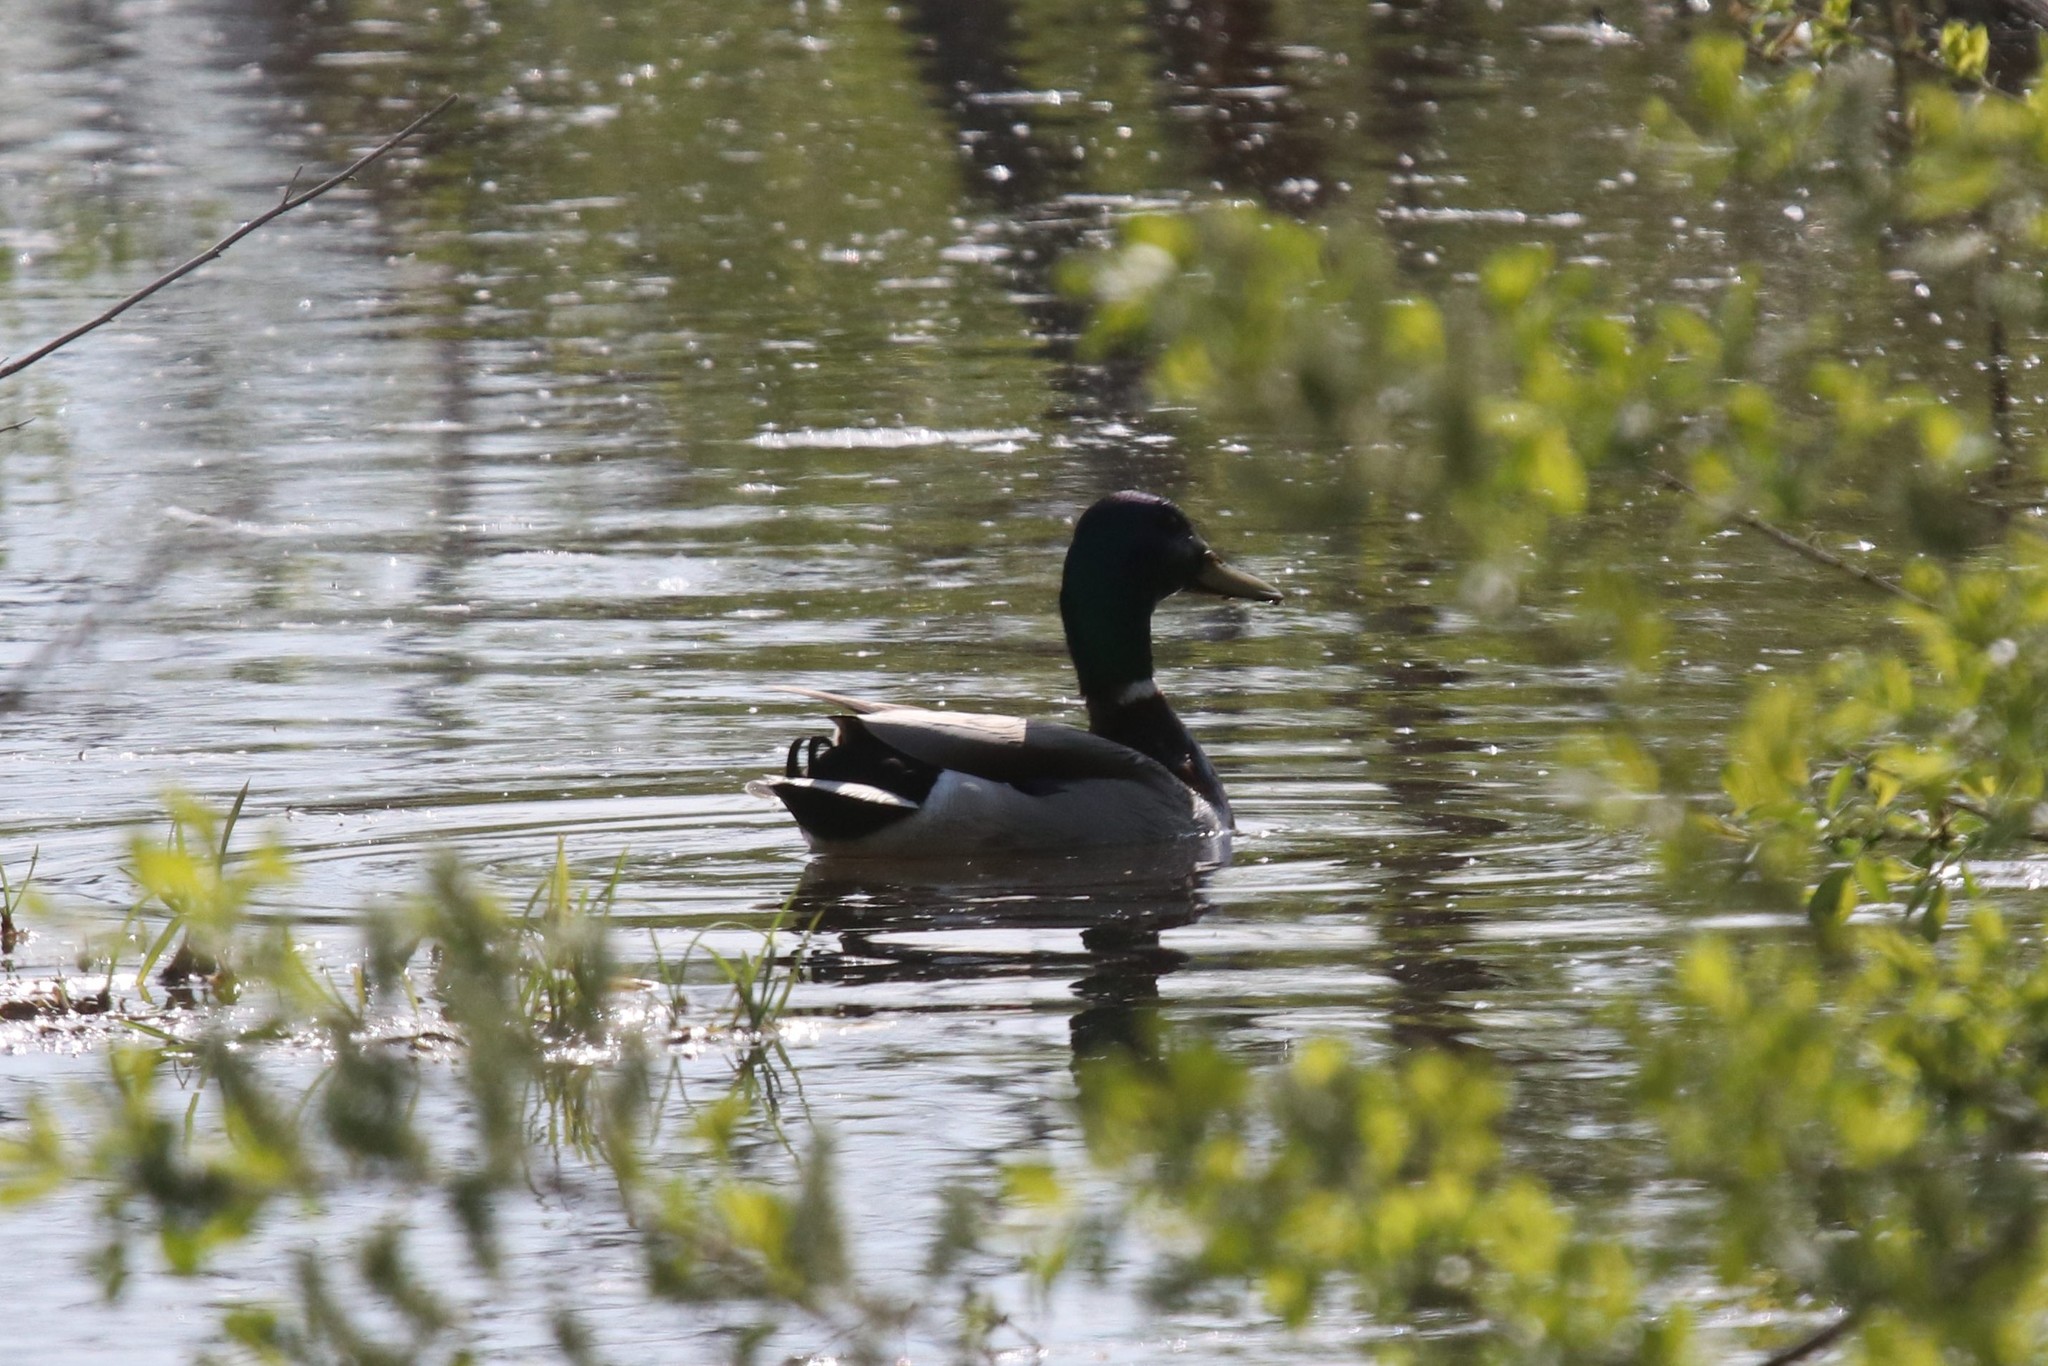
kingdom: Animalia
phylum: Chordata
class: Aves
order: Anseriformes
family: Anatidae
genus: Anas
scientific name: Anas platyrhynchos
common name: Mallard
